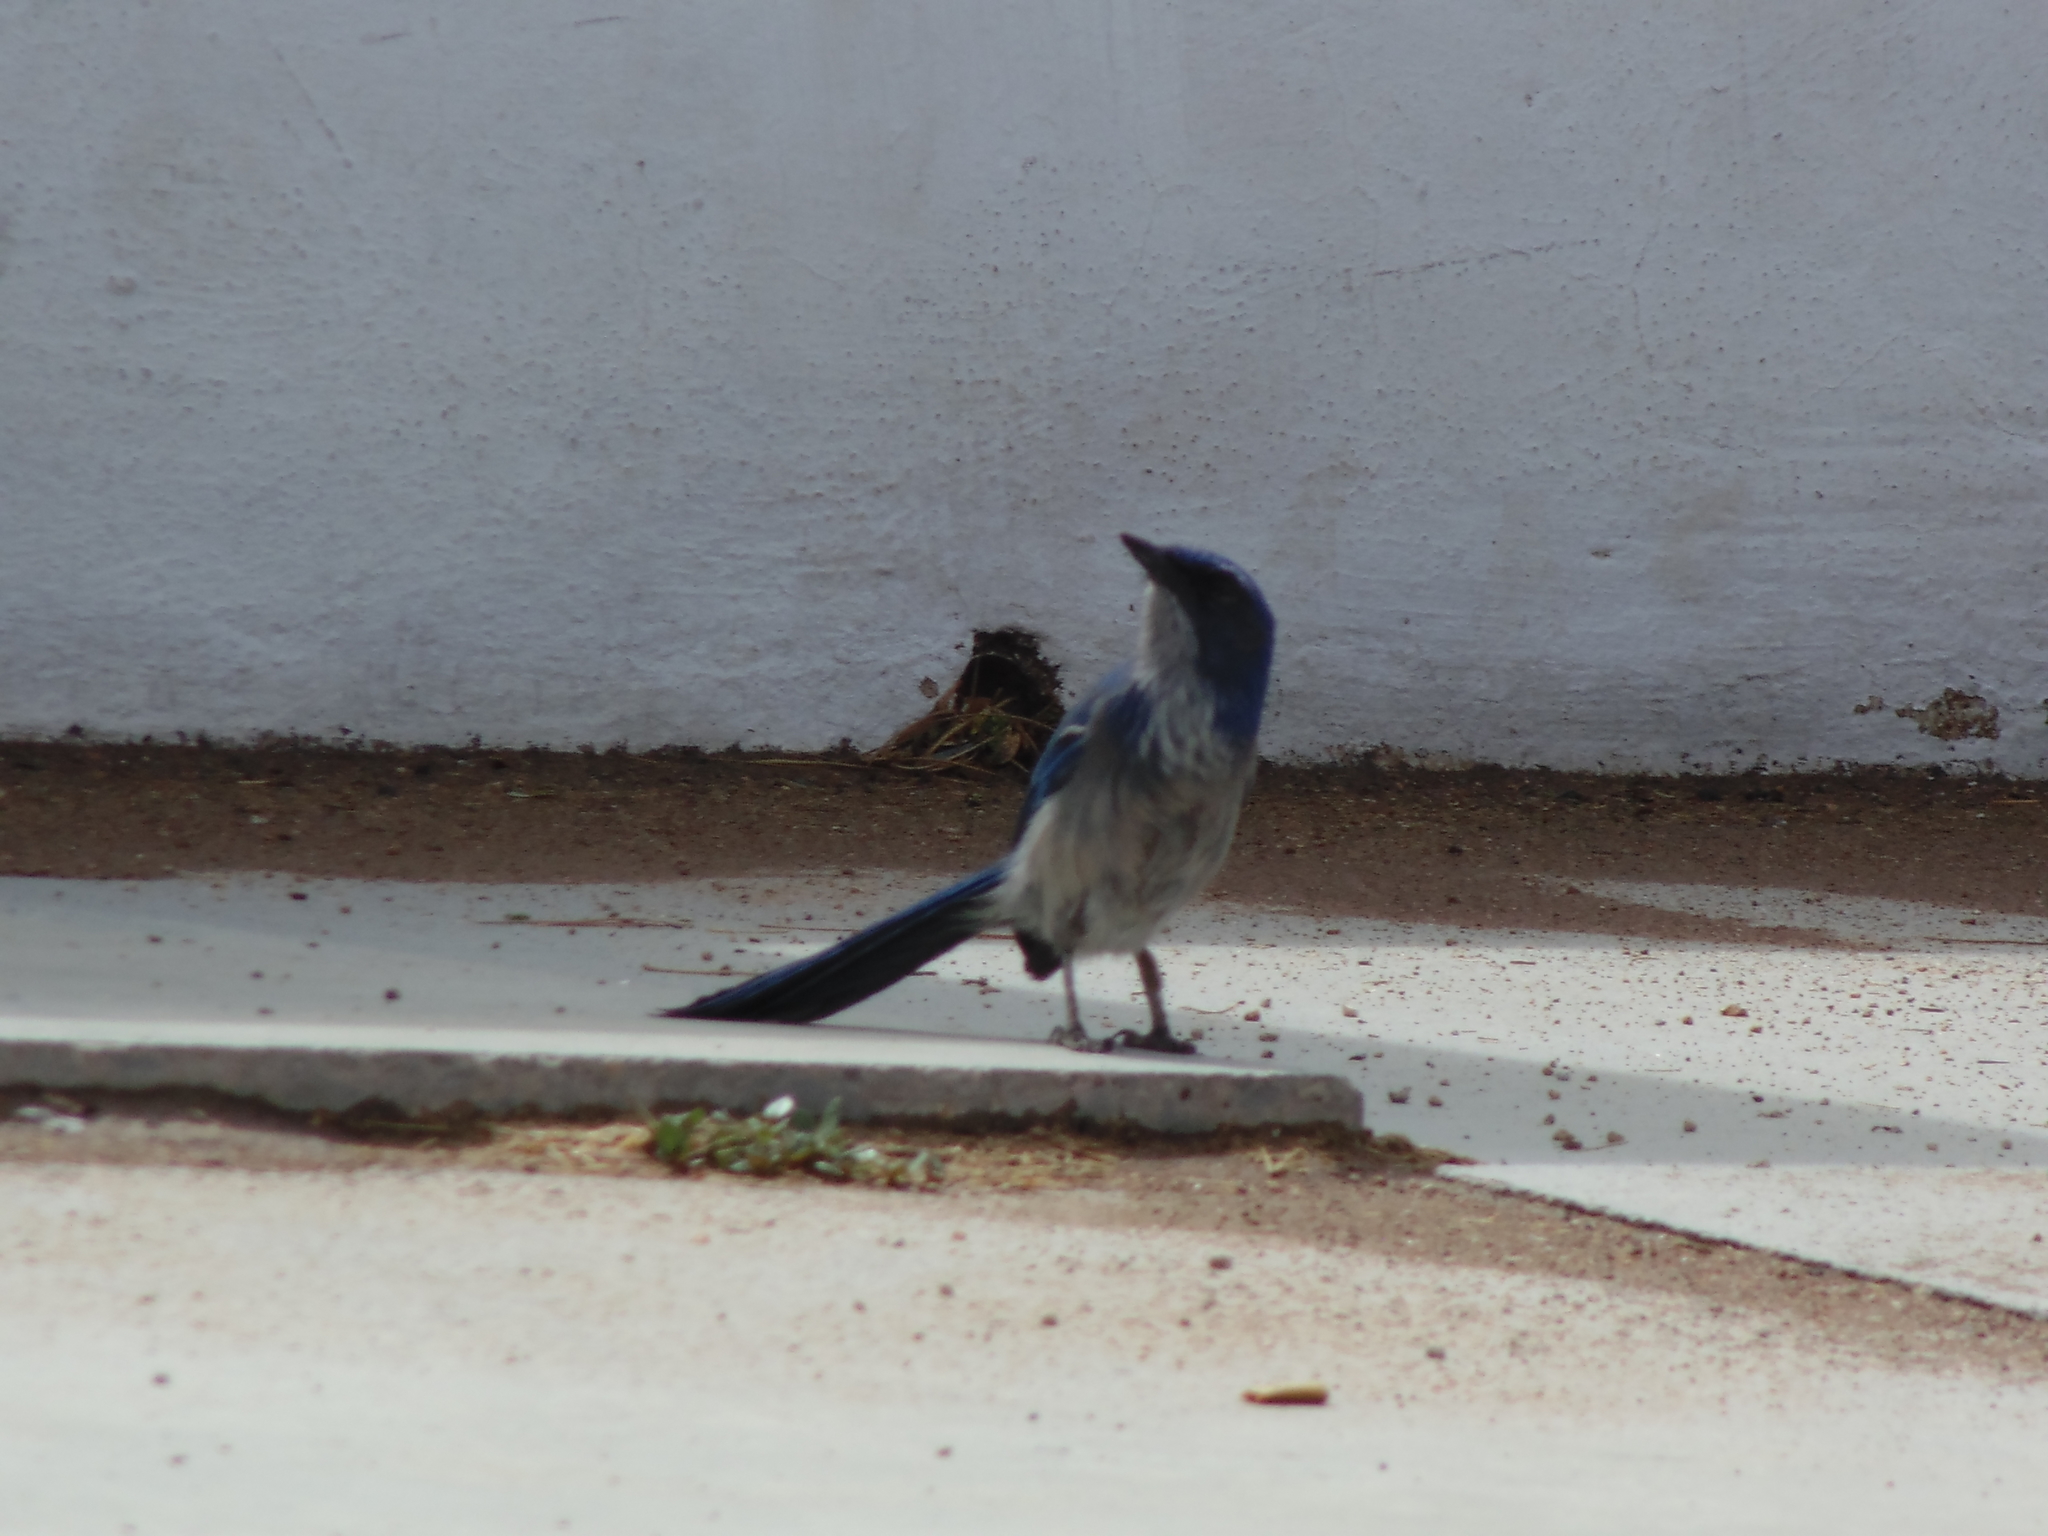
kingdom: Animalia
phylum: Chordata
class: Aves
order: Passeriformes
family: Corvidae
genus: Aphelocoma
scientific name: Aphelocoma woodhouseii
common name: Woodhouse's scrub-jay
